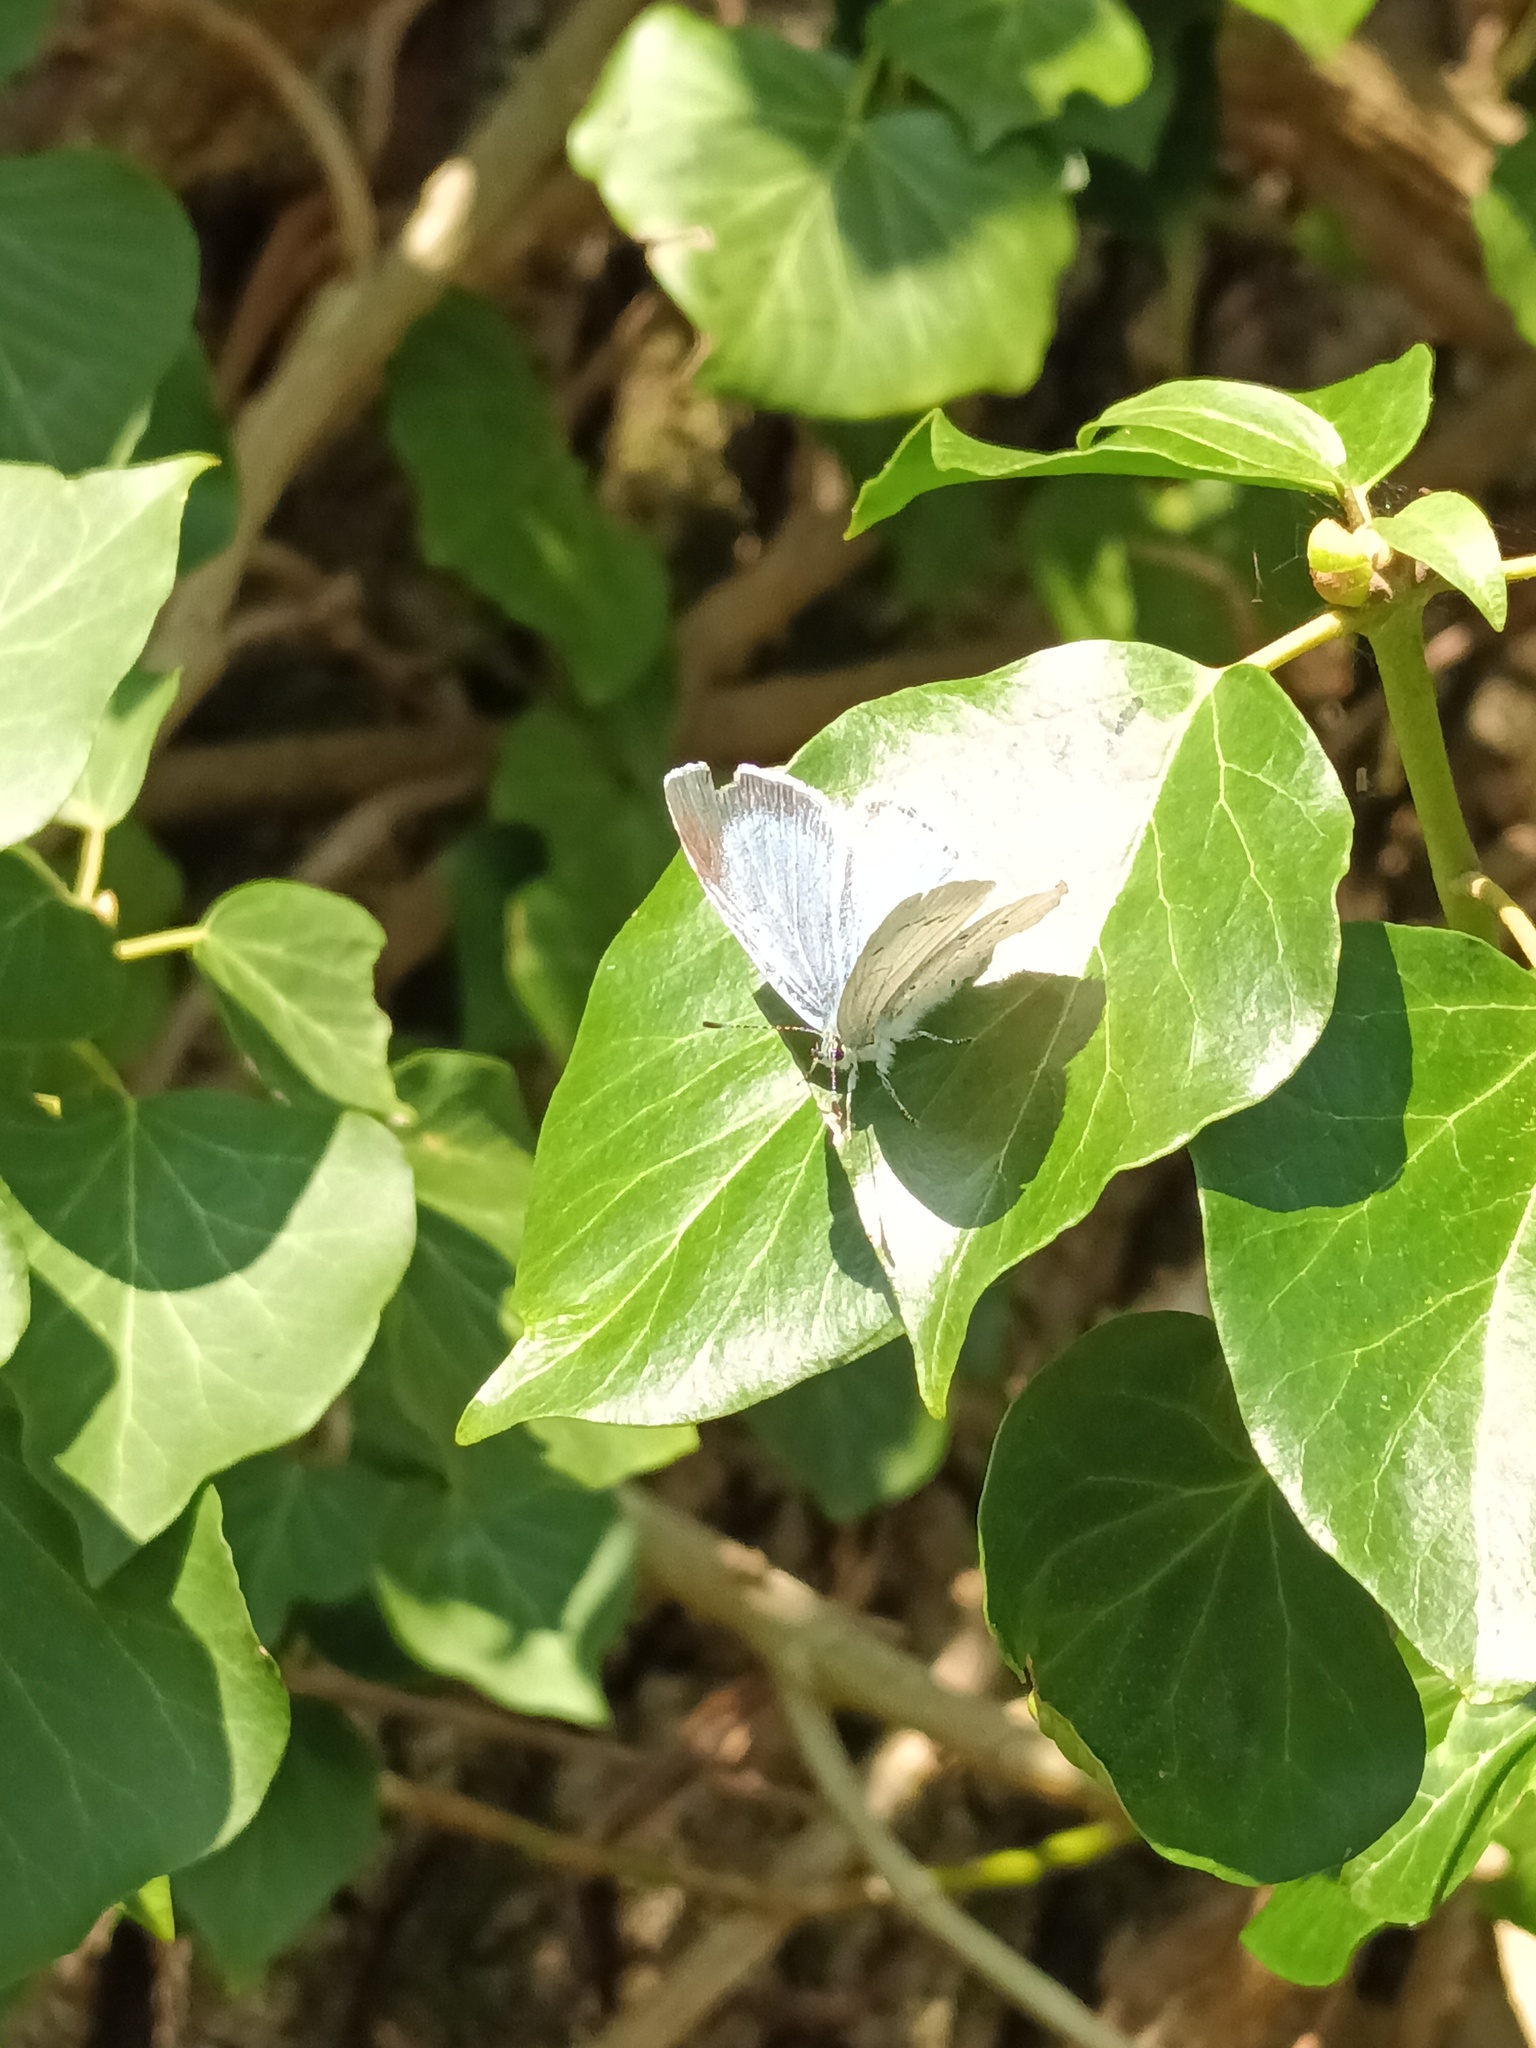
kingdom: Animalia
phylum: Arthropoda
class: Insecta
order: Lepidoptera
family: Lycaenidae
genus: Celastrina
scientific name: Celastrina argiolus
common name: Holly blue
